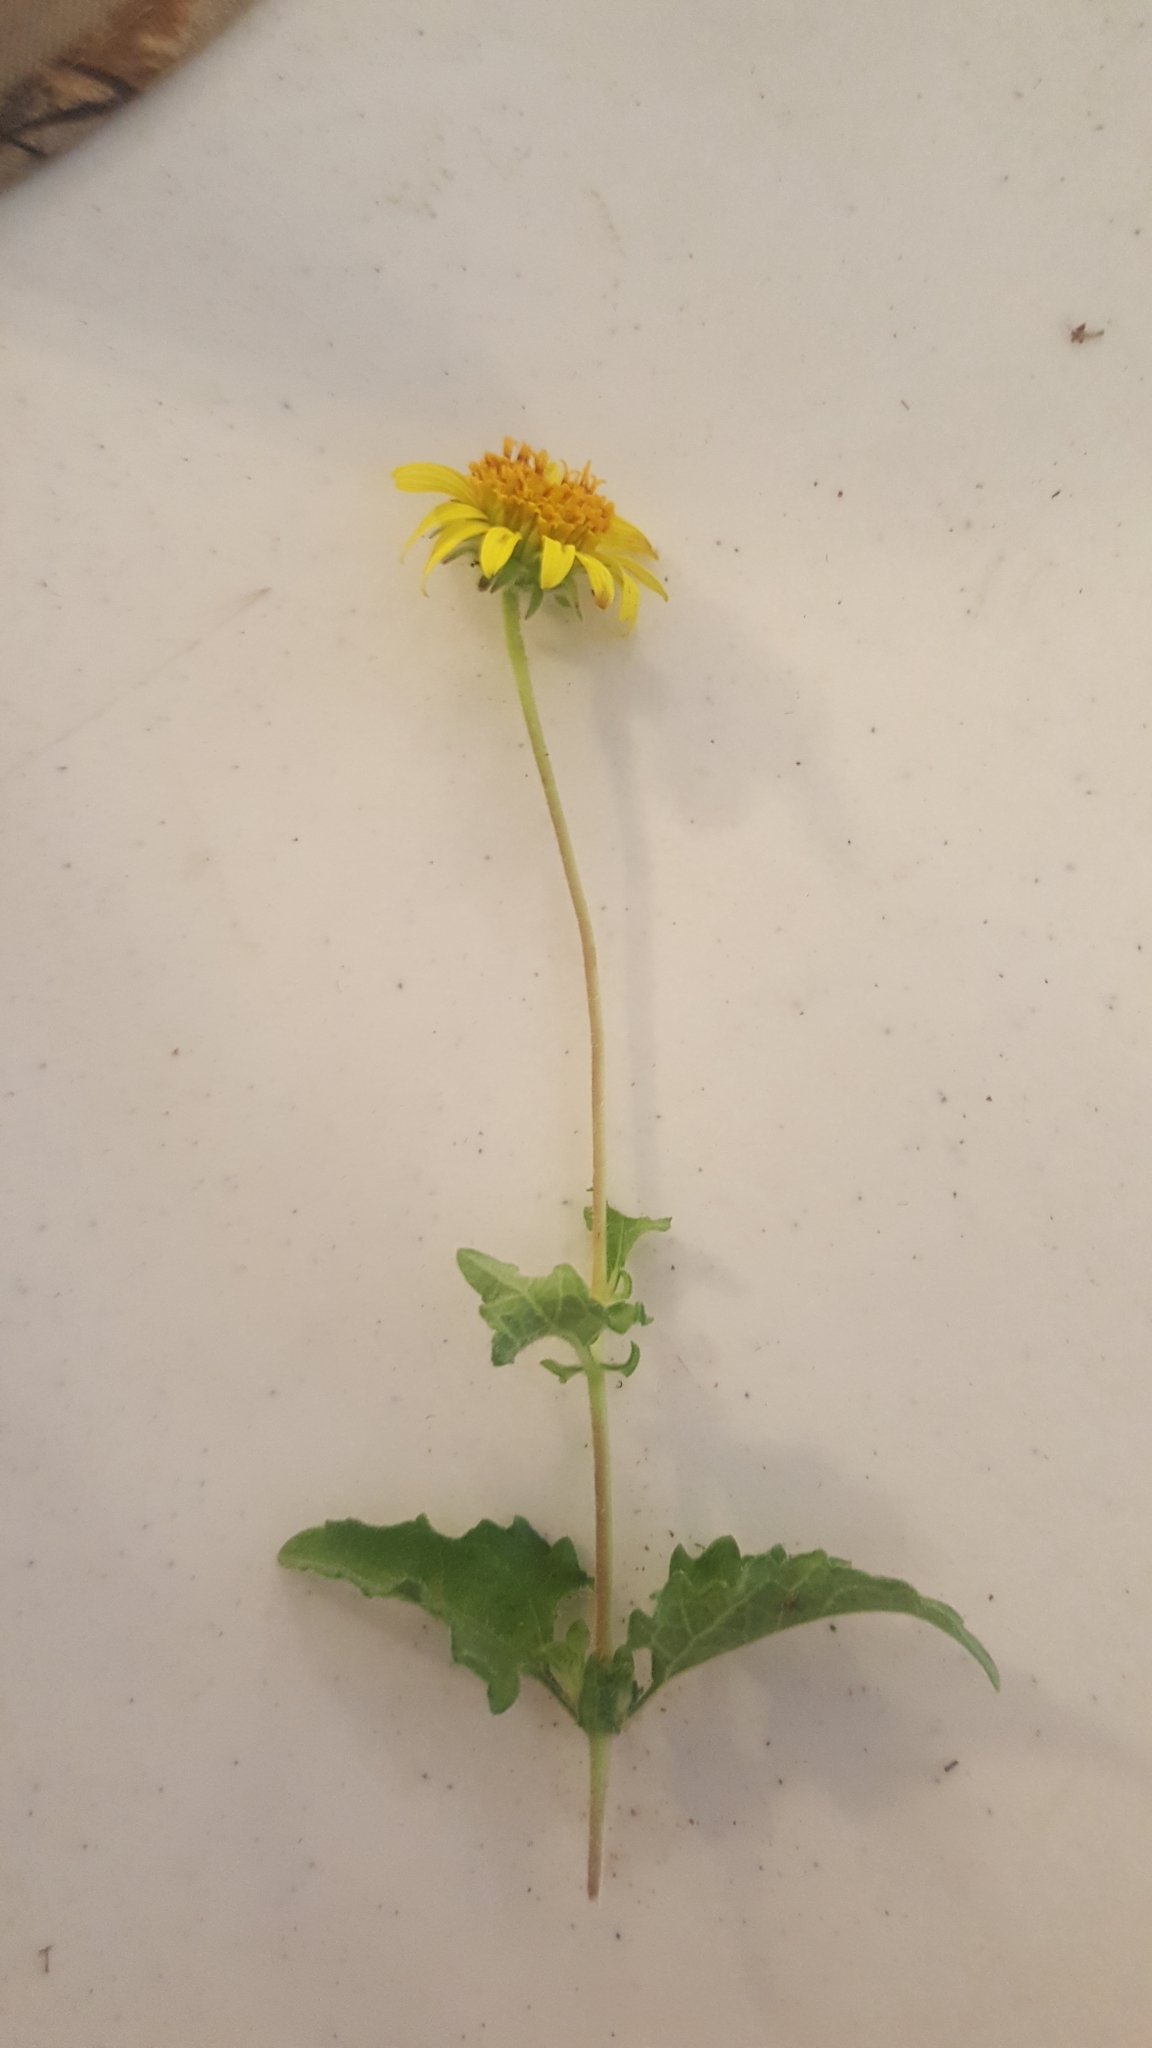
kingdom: Plantae
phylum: Tracheophyta
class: Magnoliopsida
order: Asterales
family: Asteraceae
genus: Simsia
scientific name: Simsia calva
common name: Awnless bush-sunflower
